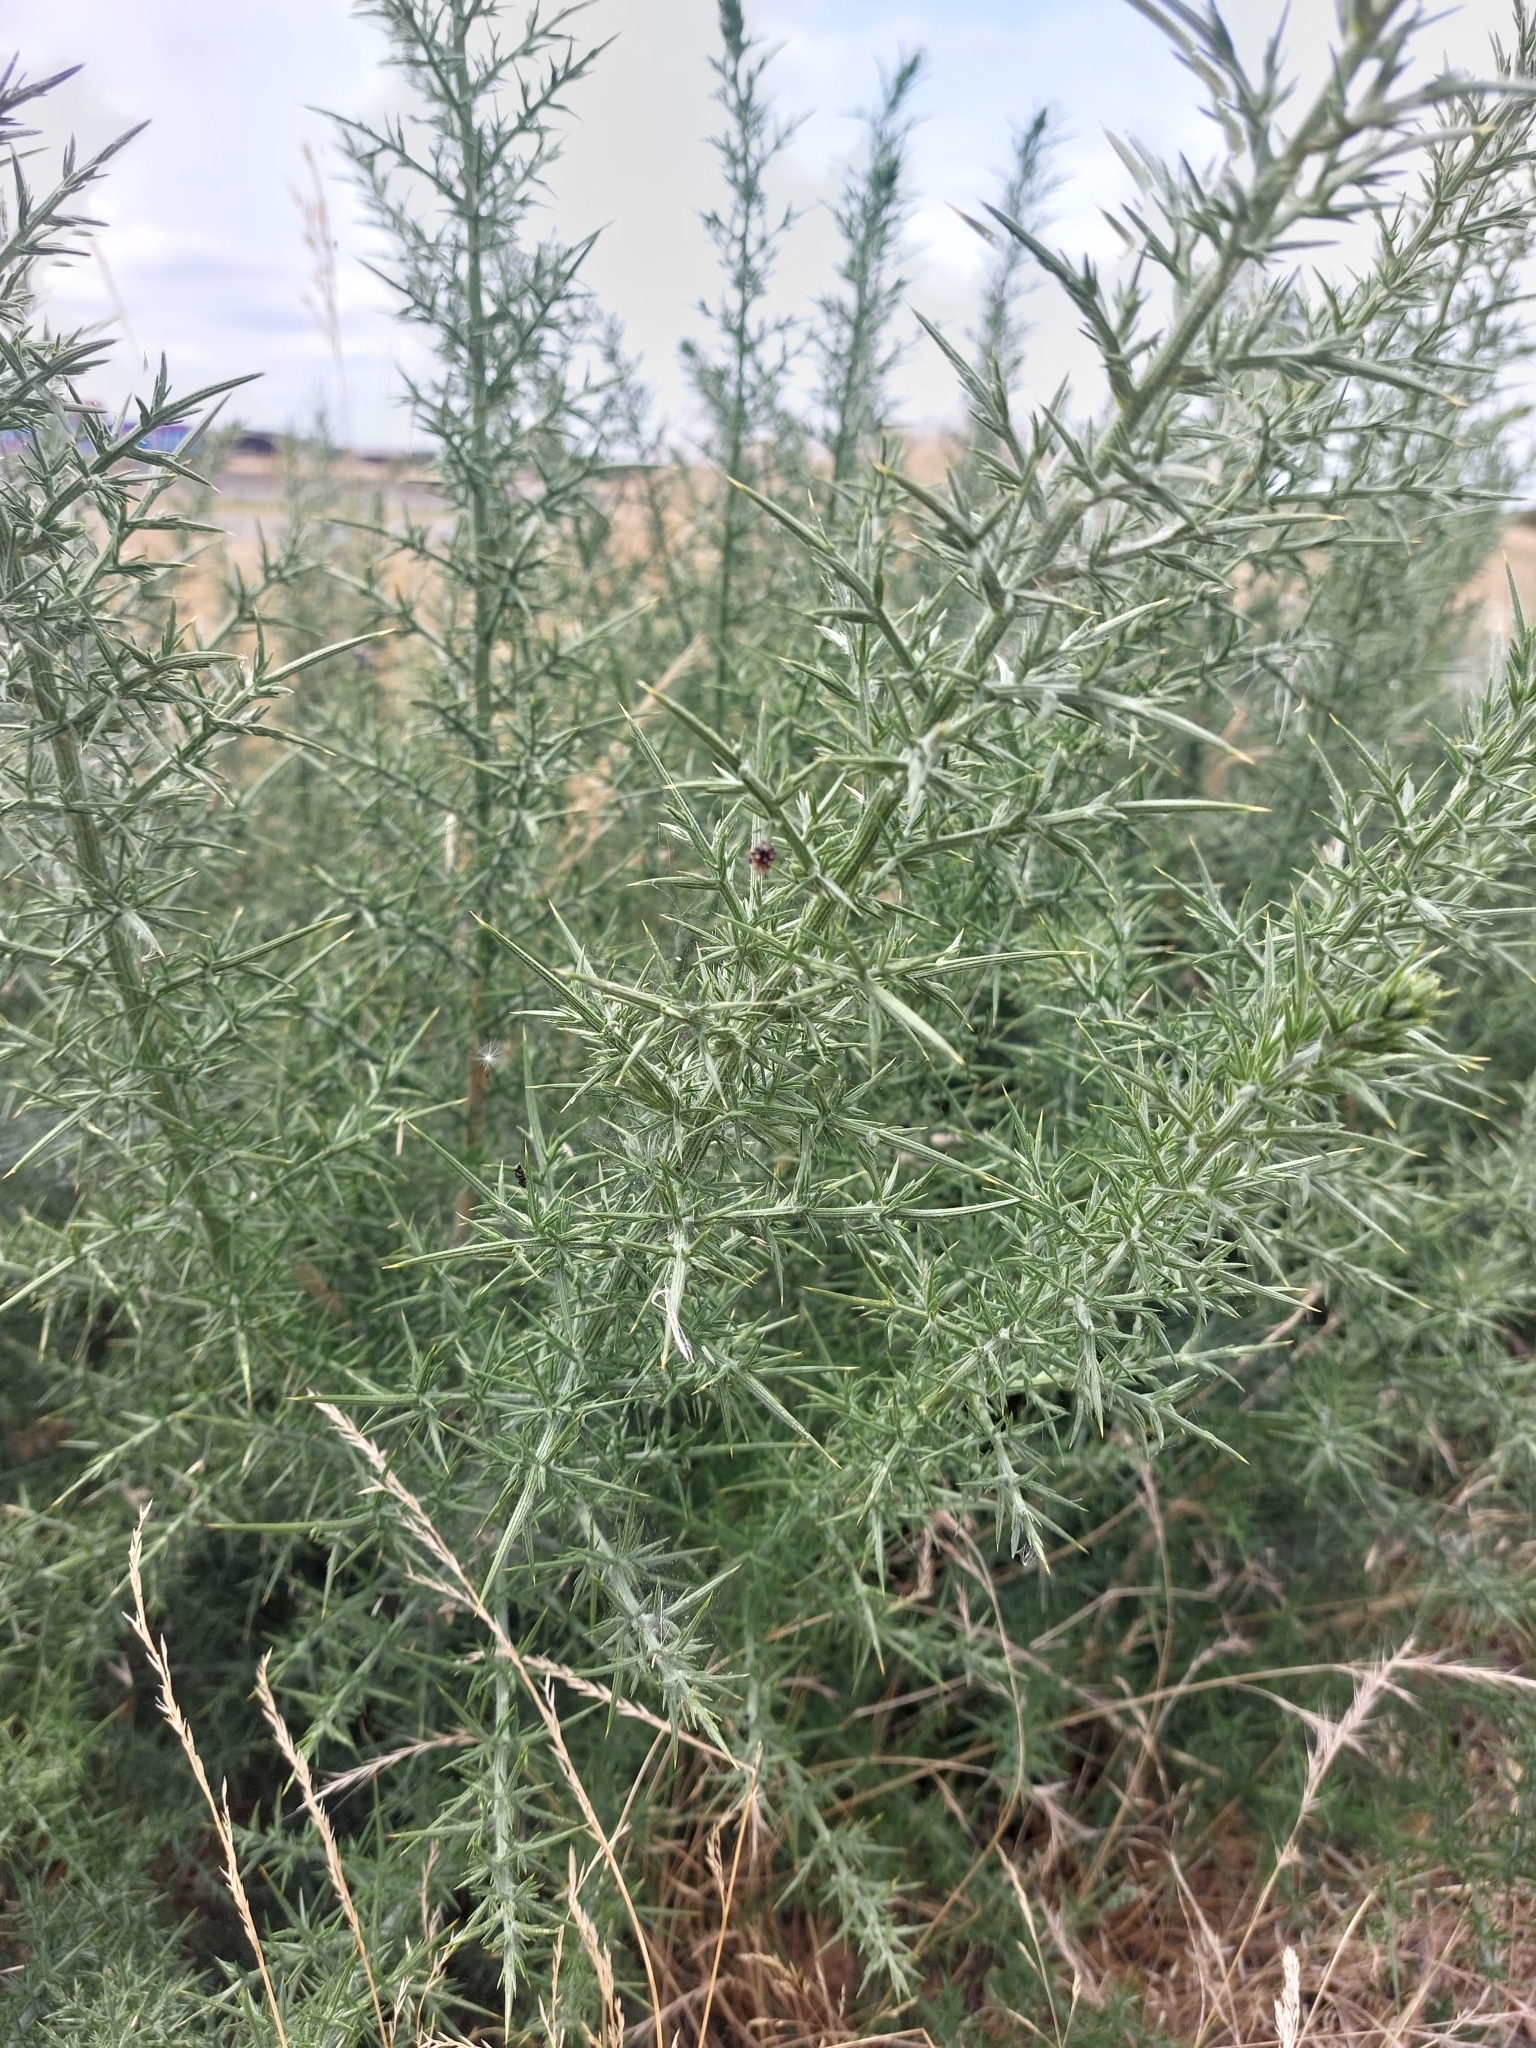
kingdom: Plantae
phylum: Tracheophyta
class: Magnoliopsida
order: Fabales
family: Fabaceae
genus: Ulex
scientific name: Ulex europaeus
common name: Common gorse
